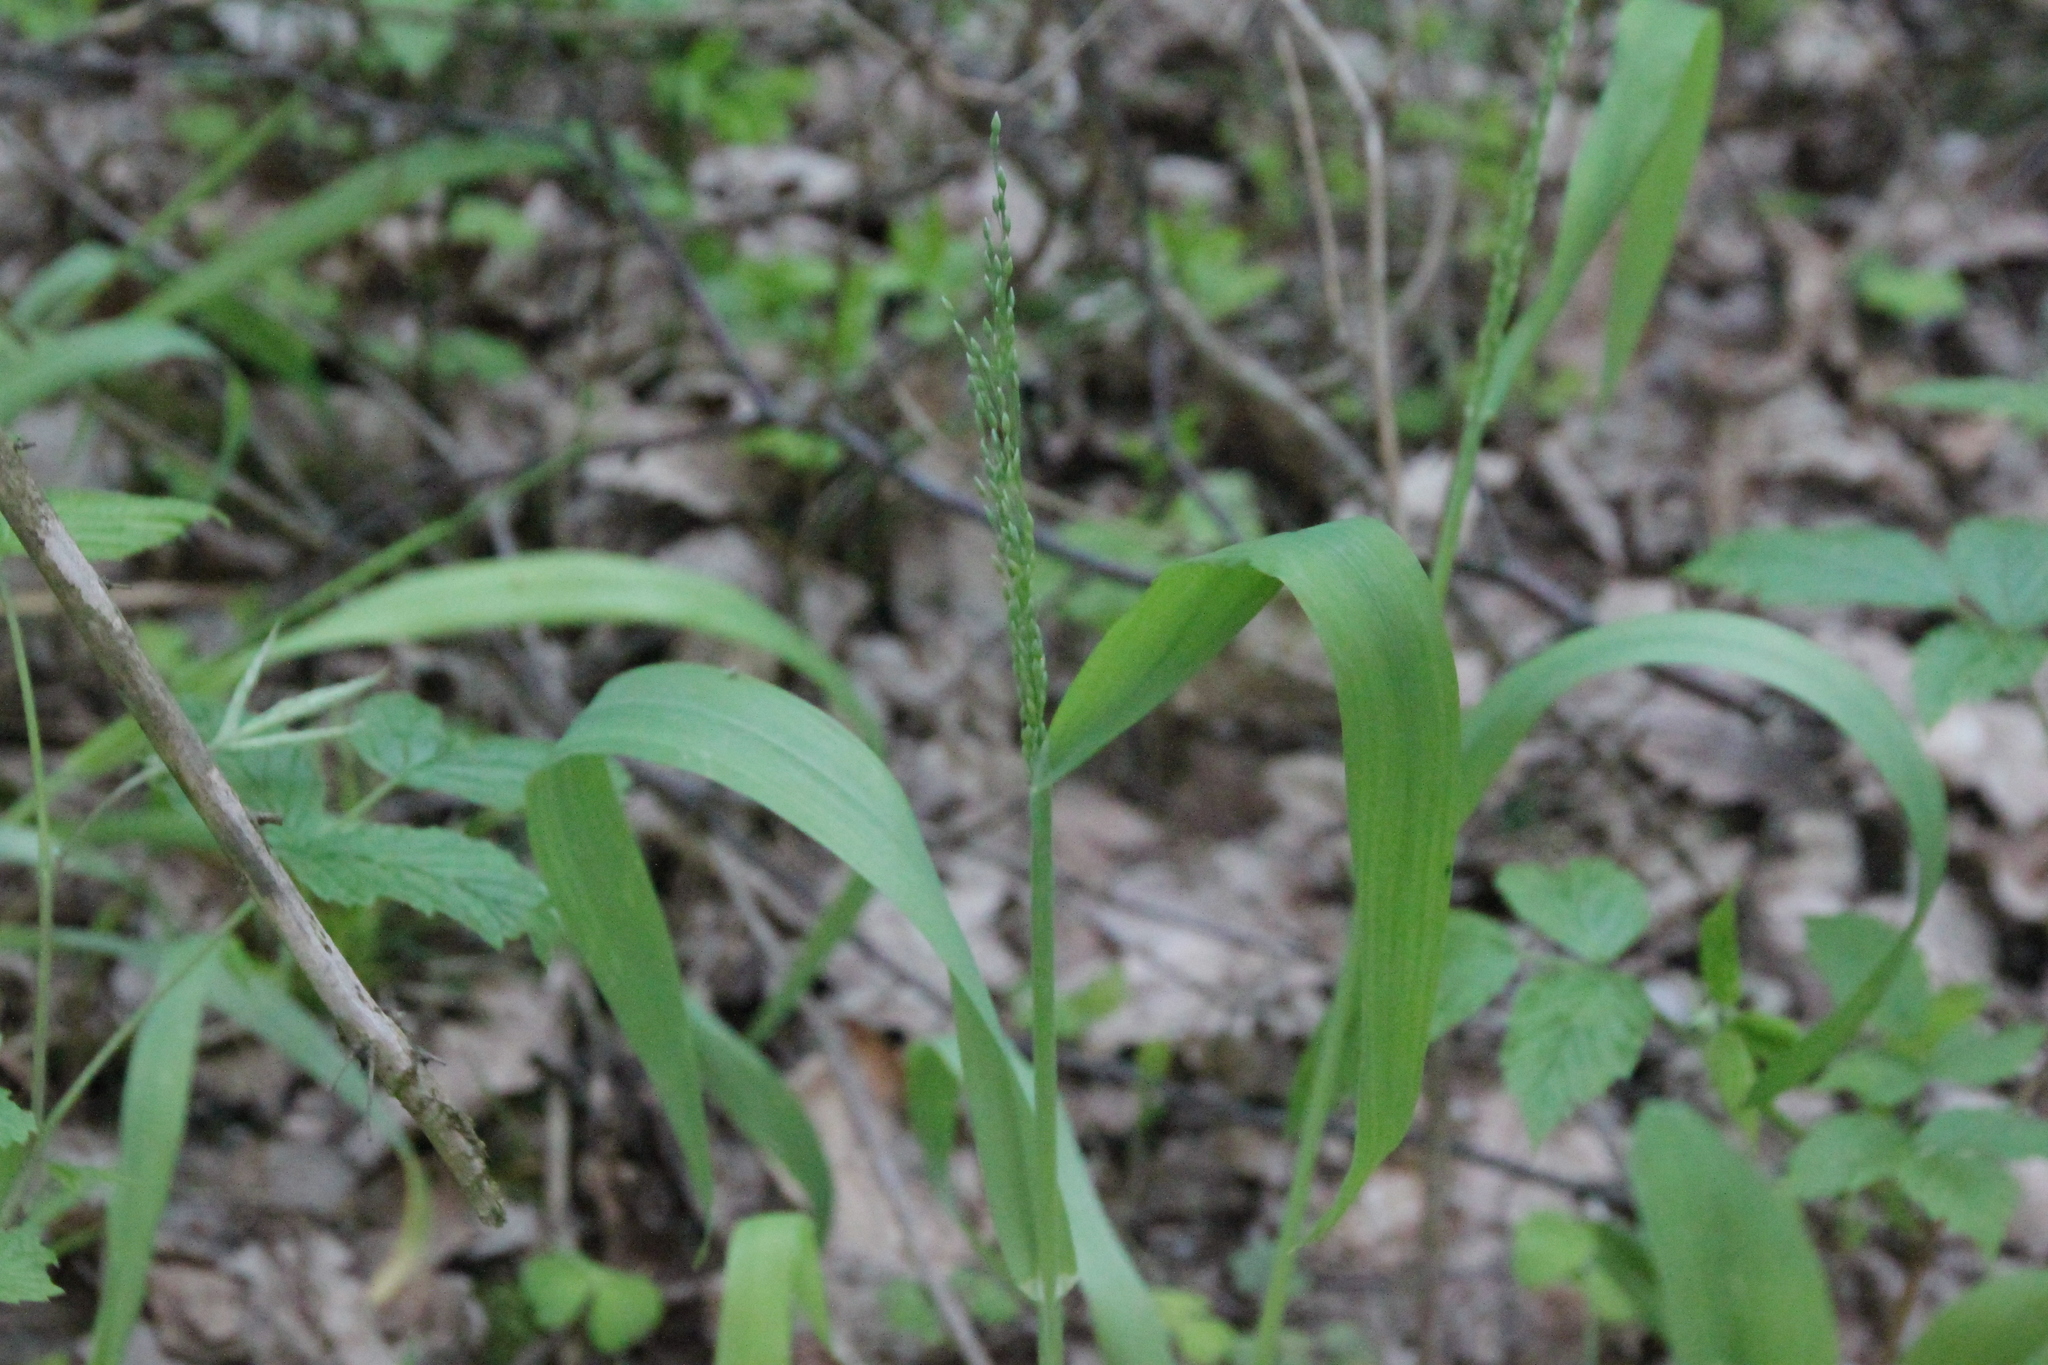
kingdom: Plantae
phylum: Tracheophyta
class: Liliopsida
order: Poales
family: Poaceae
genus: Milium
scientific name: Milium effusum
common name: Wood millet
